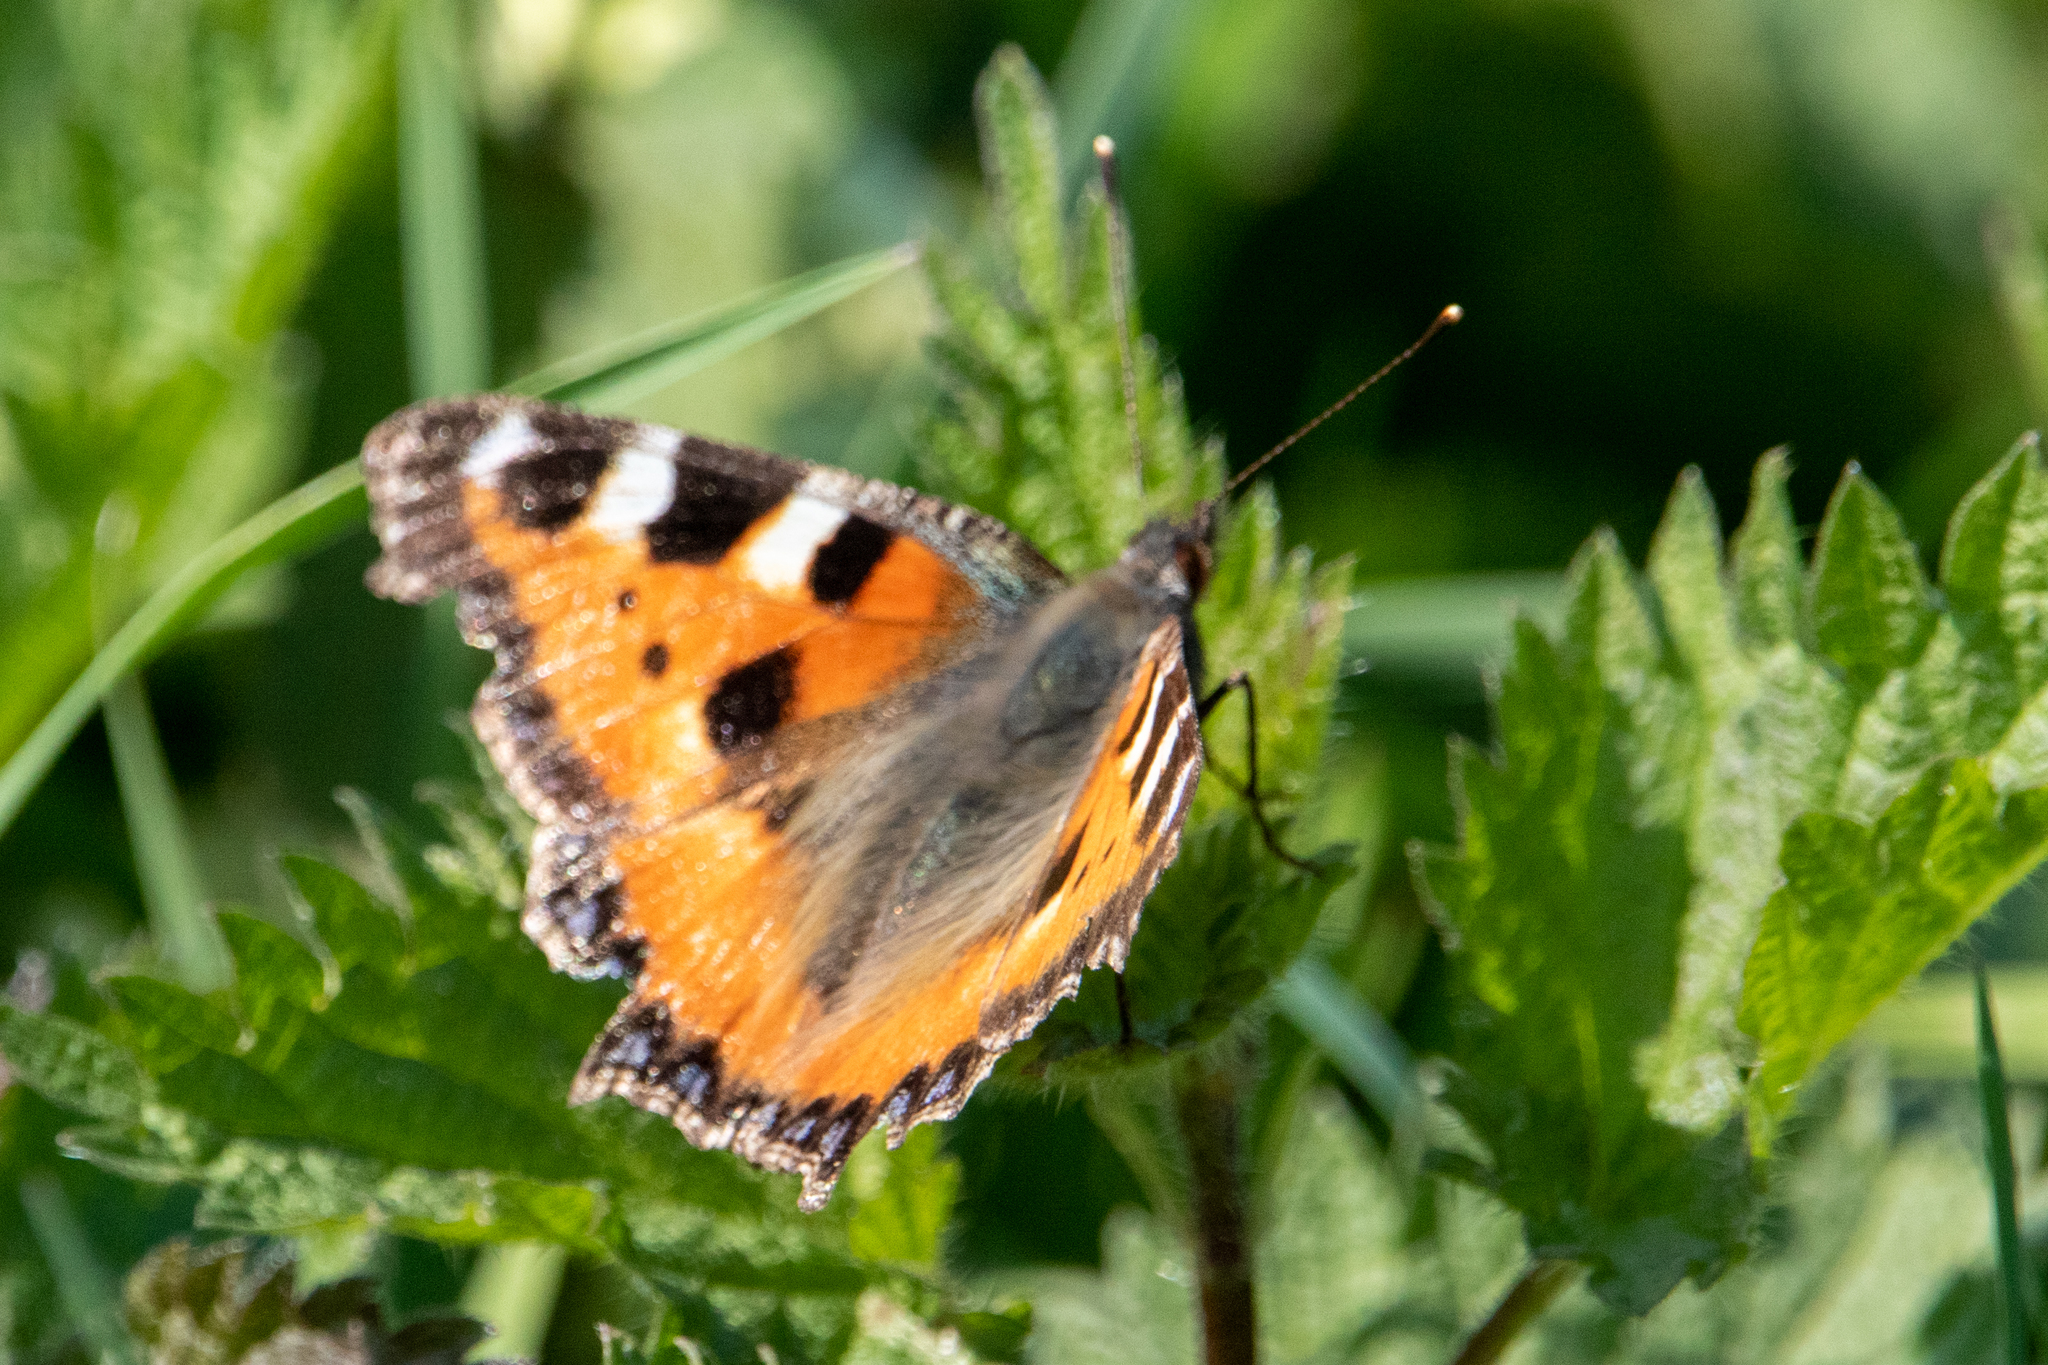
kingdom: Animalia
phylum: Arthropoda
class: Insecta
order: Lepidoptera
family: Nymphalidae
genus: Aglais
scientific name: Aglais urticae
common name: Small tortoiseshell
